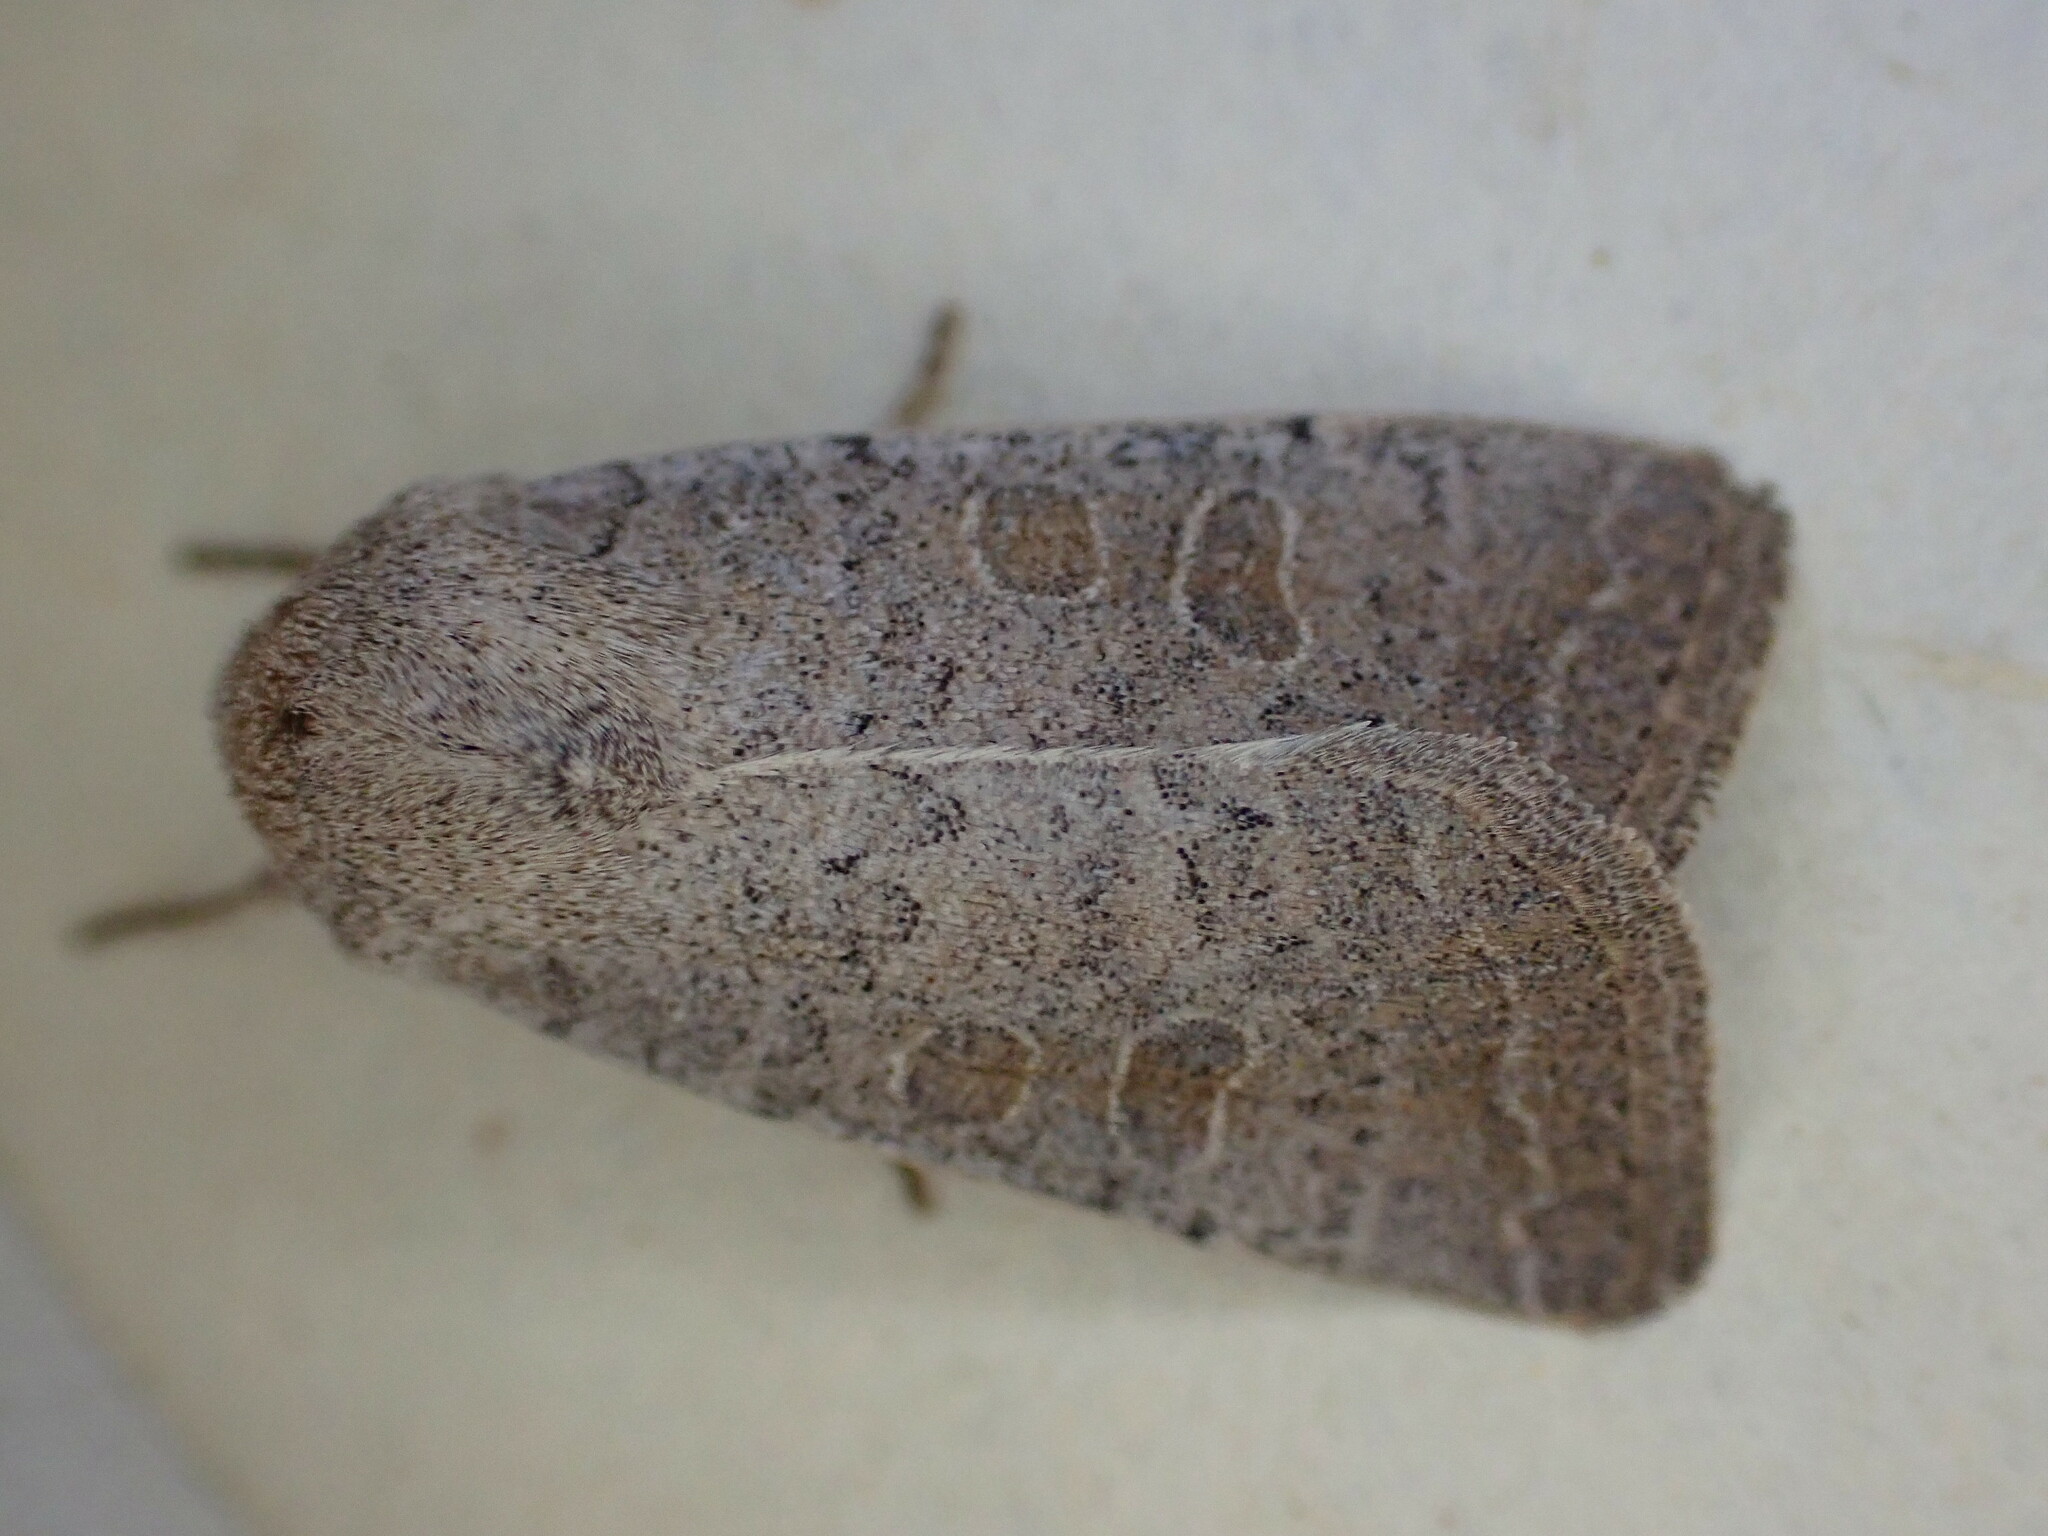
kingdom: Animalia
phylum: Arthropoda
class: Insecta
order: Lepidoptera
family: Noctuidae
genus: Hoplodrina
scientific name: Hoplodrina ambigua
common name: Vine's rustic
